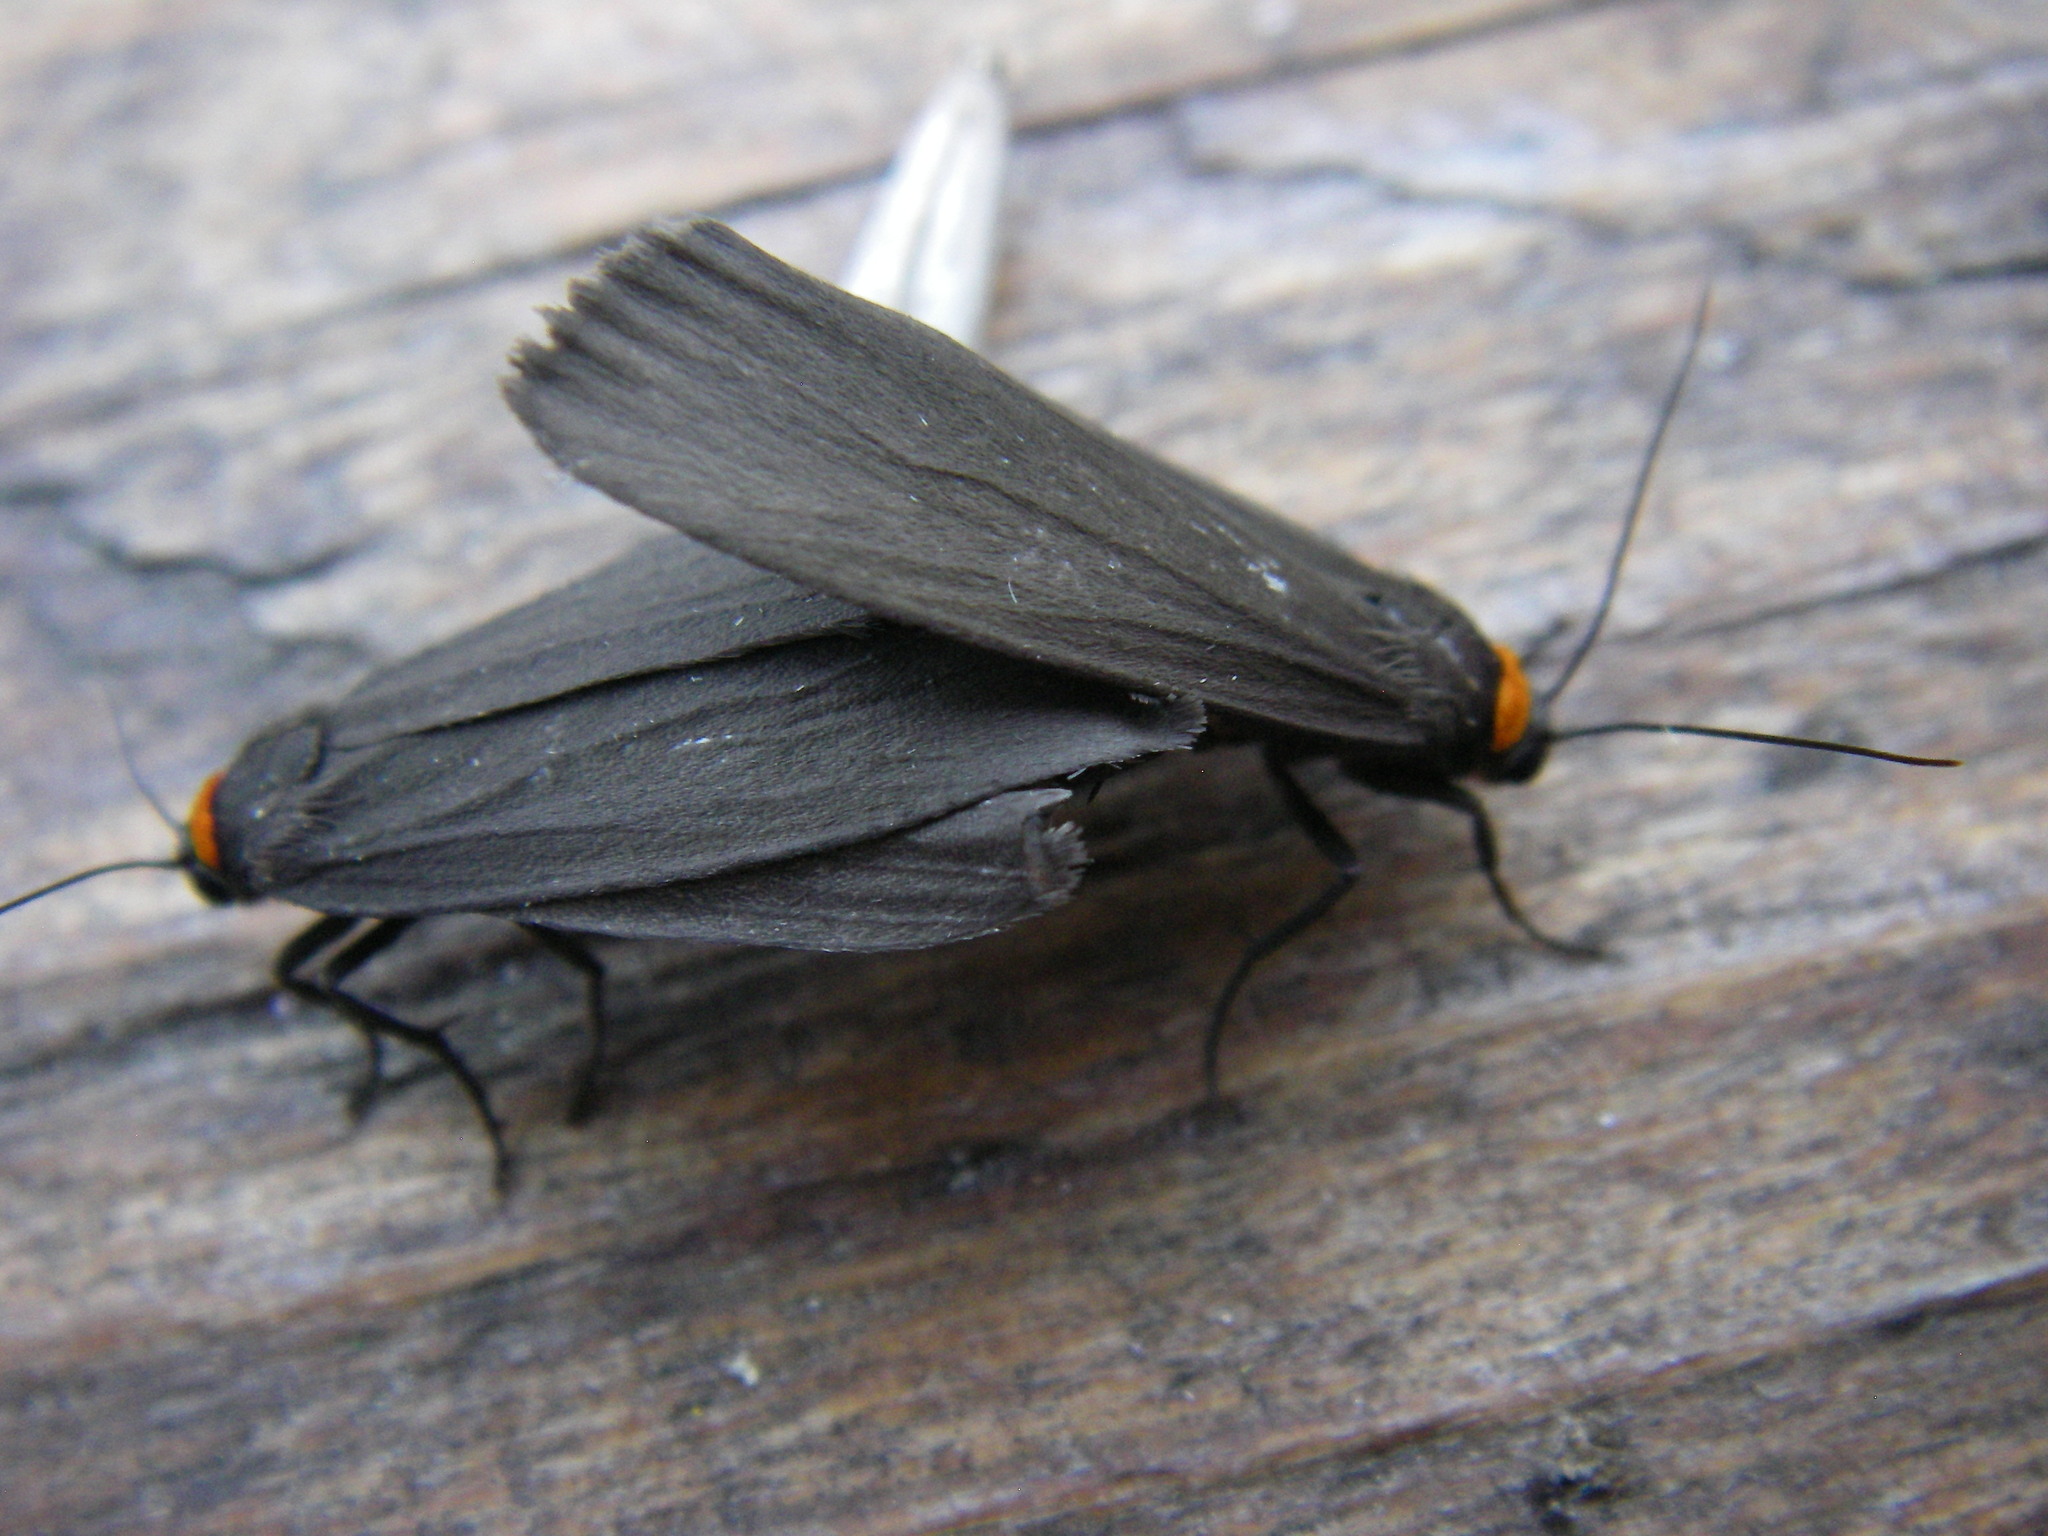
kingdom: Animalia
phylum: Arthropoda
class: Insecta
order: Lepidoptera
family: Erebidae
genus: Atolmis
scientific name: Atolmis rubricollis
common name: Red-necked footman
